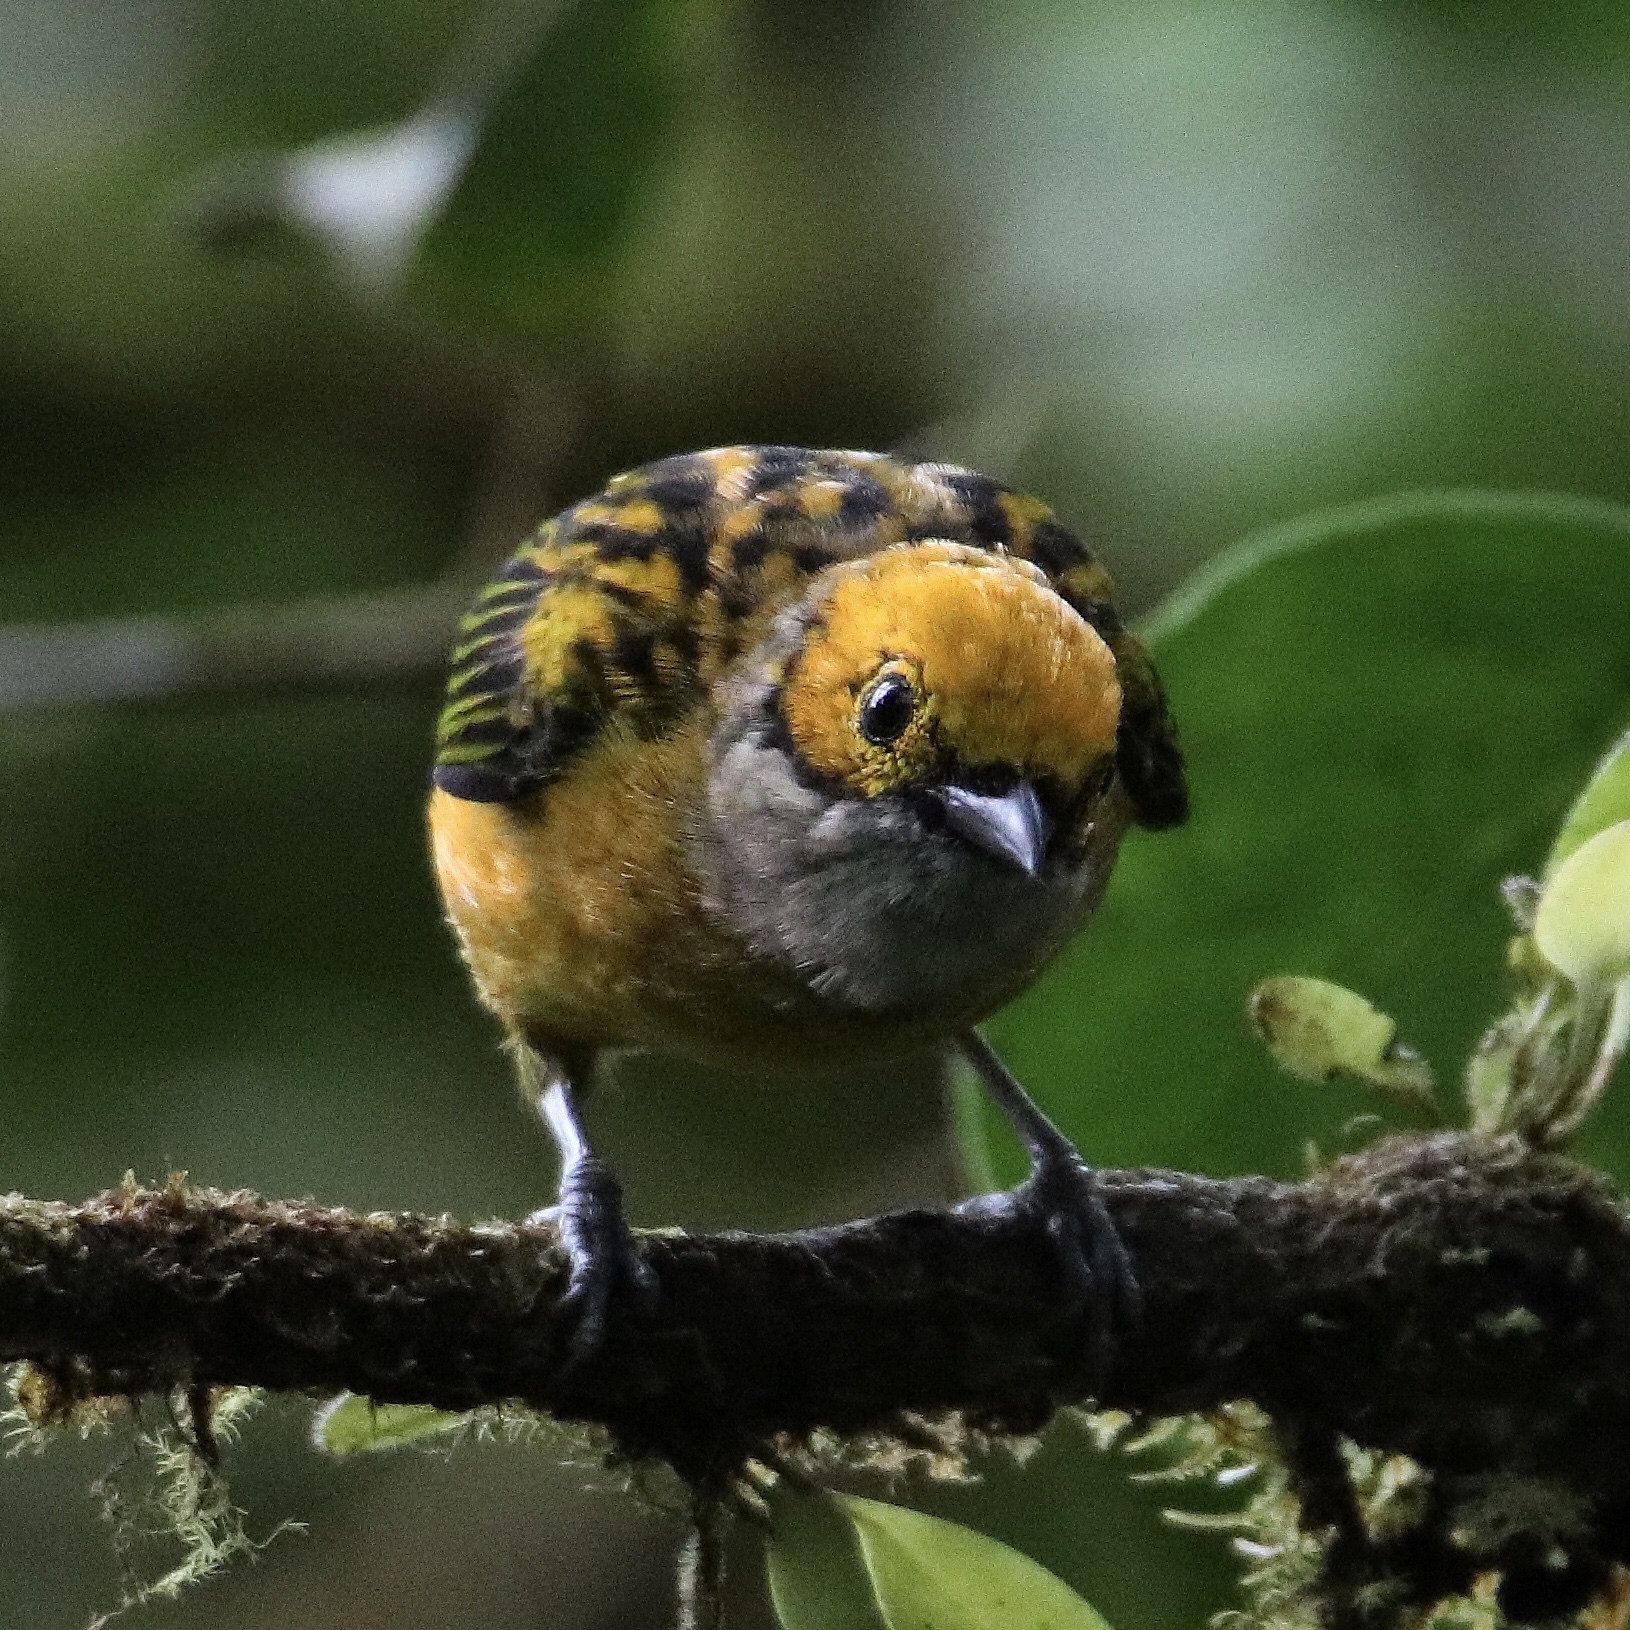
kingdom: Animalia
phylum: Chordata
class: Aves
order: Passeriformes
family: Thraupidae
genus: Tangara
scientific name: Tangara icterocephala
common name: Silver-throated tanager
